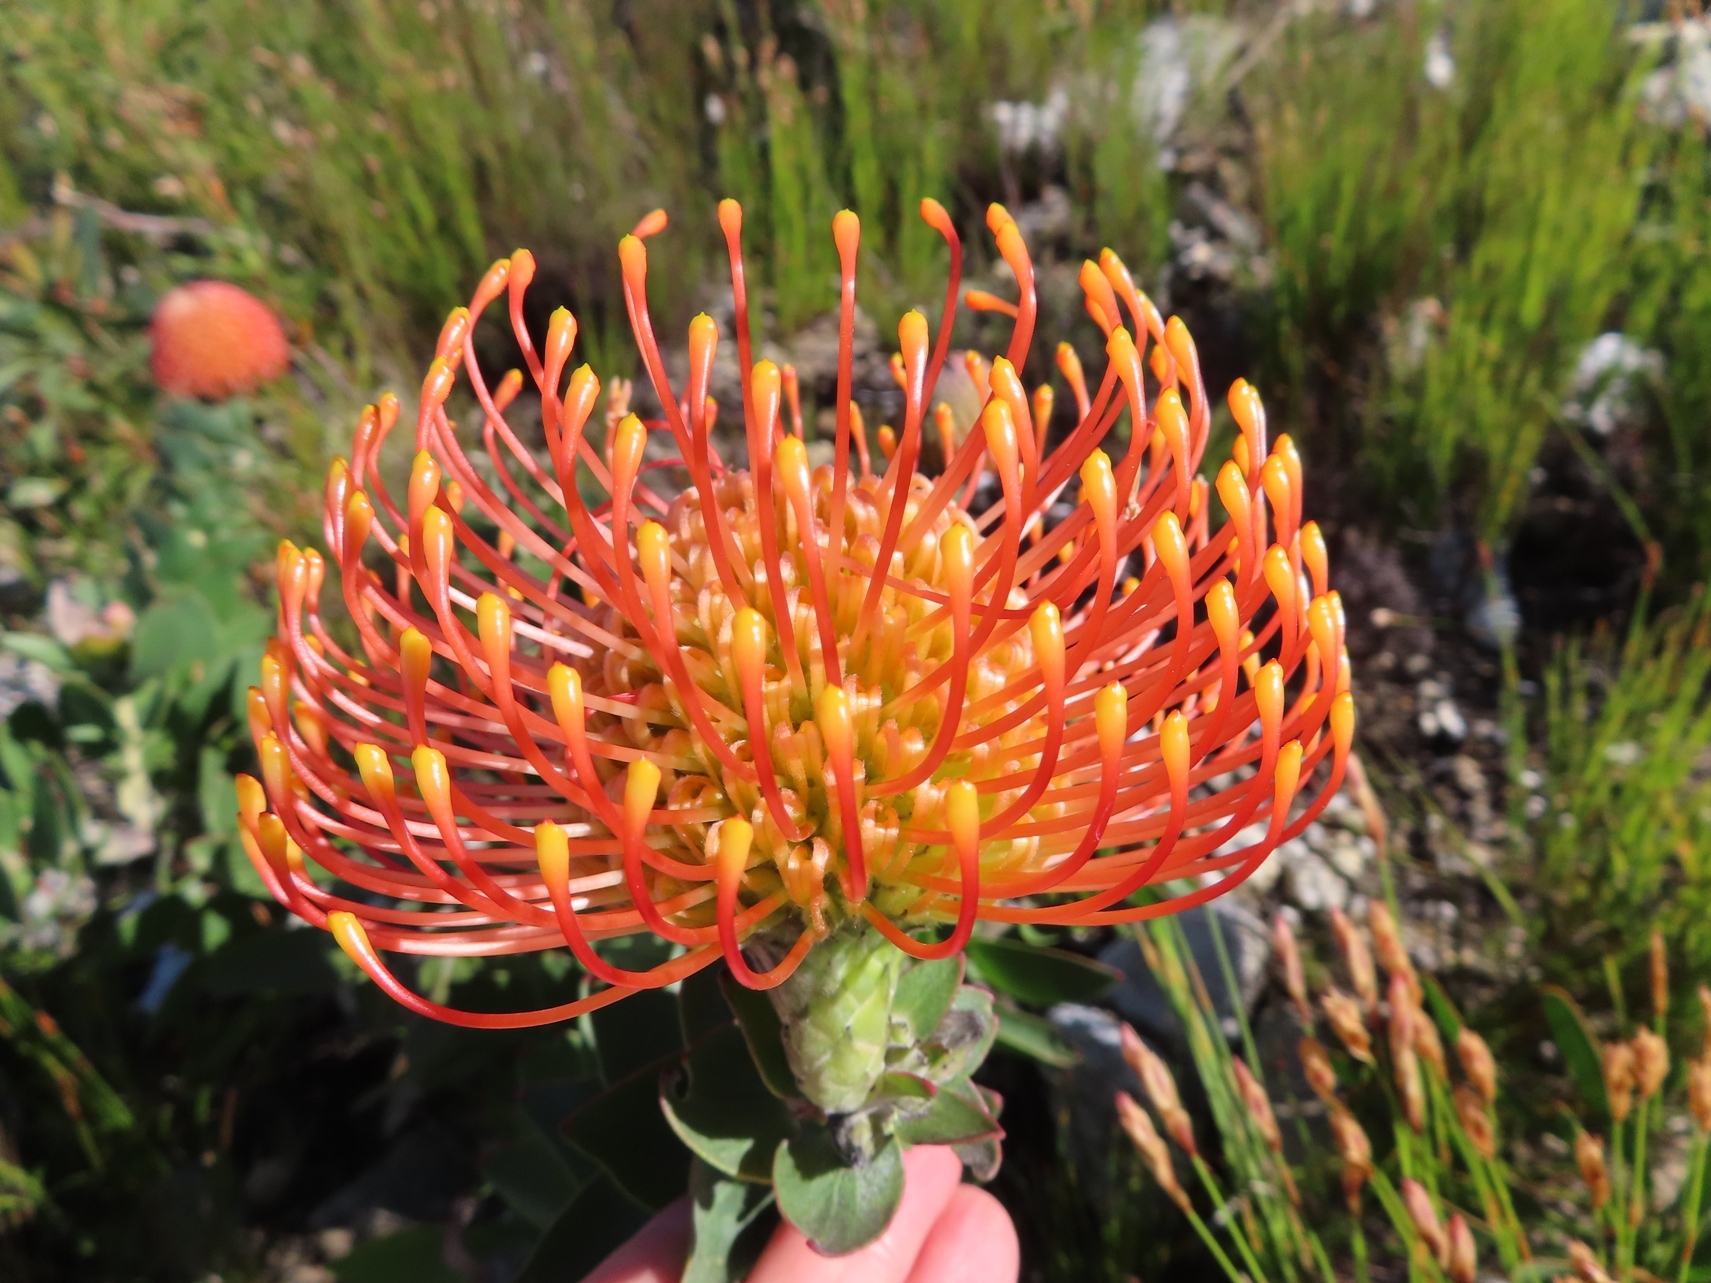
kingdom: Plantae
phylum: Tracheophyta
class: Magnoliopsida
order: Proteales
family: Proteaceae
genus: Leucospermum
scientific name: Leucospermum cordifolium
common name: Red pincushion-protea
